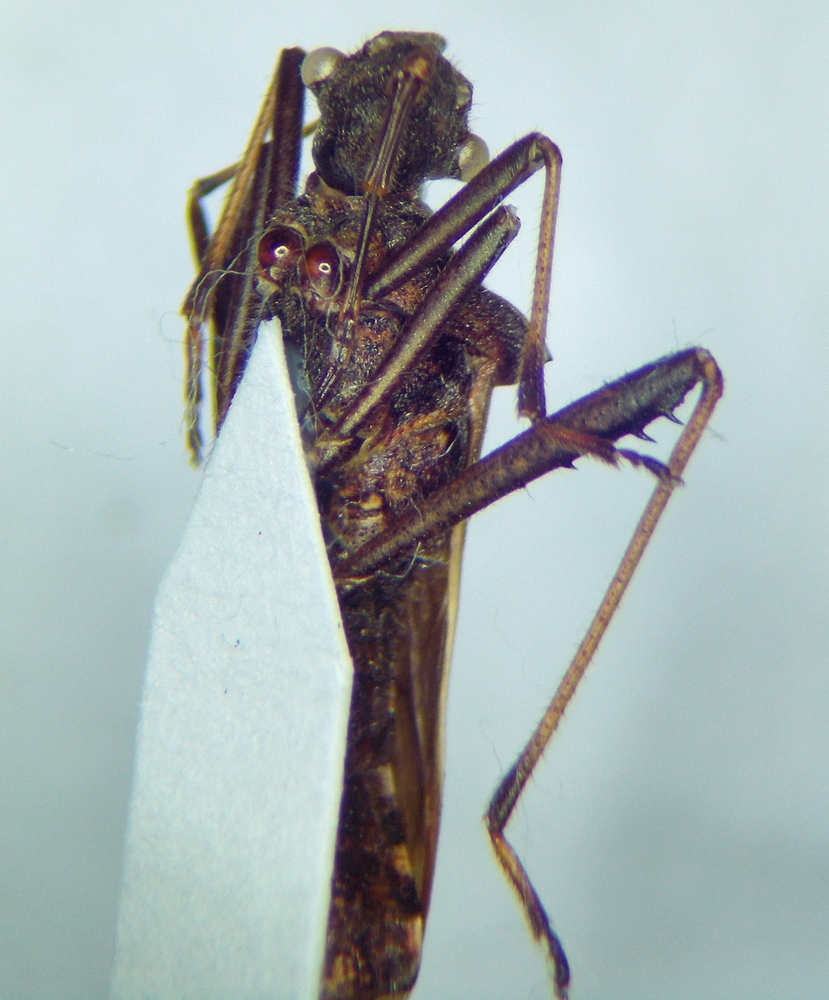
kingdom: Animalia
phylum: Arthropoda
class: Insecta
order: Hemiptera
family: Alydidae
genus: Megalotomus
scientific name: Megalotomus ornaticeps
